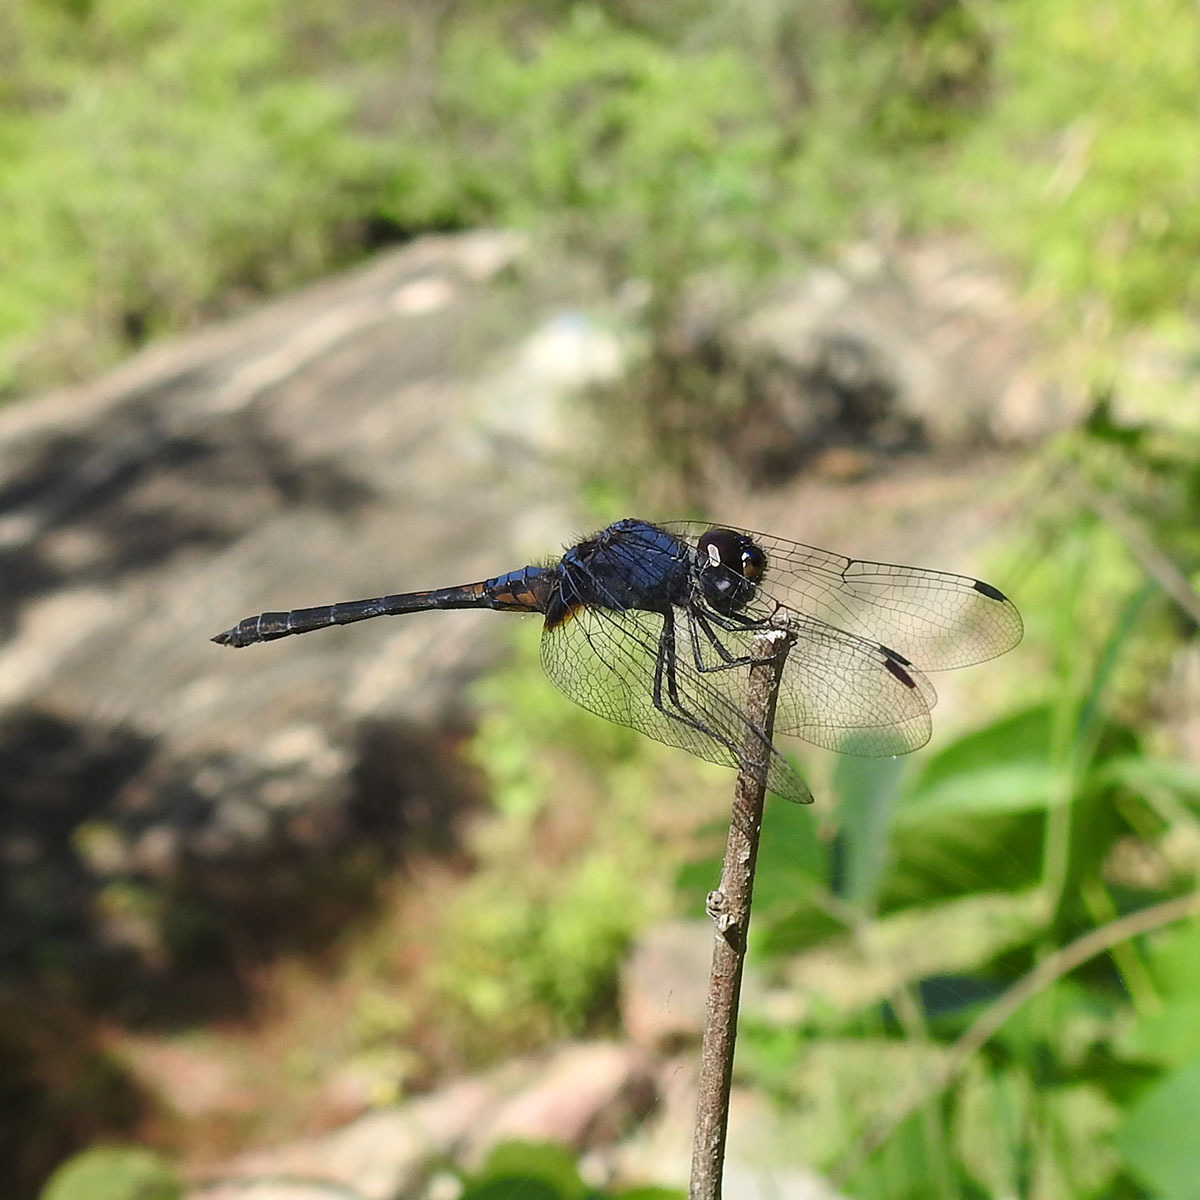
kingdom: Animalia
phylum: Arthropoda
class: Insecta
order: Odonata
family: Libellulidae
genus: Trithemis
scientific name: Trithemis festiva
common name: Indigo dropwing
